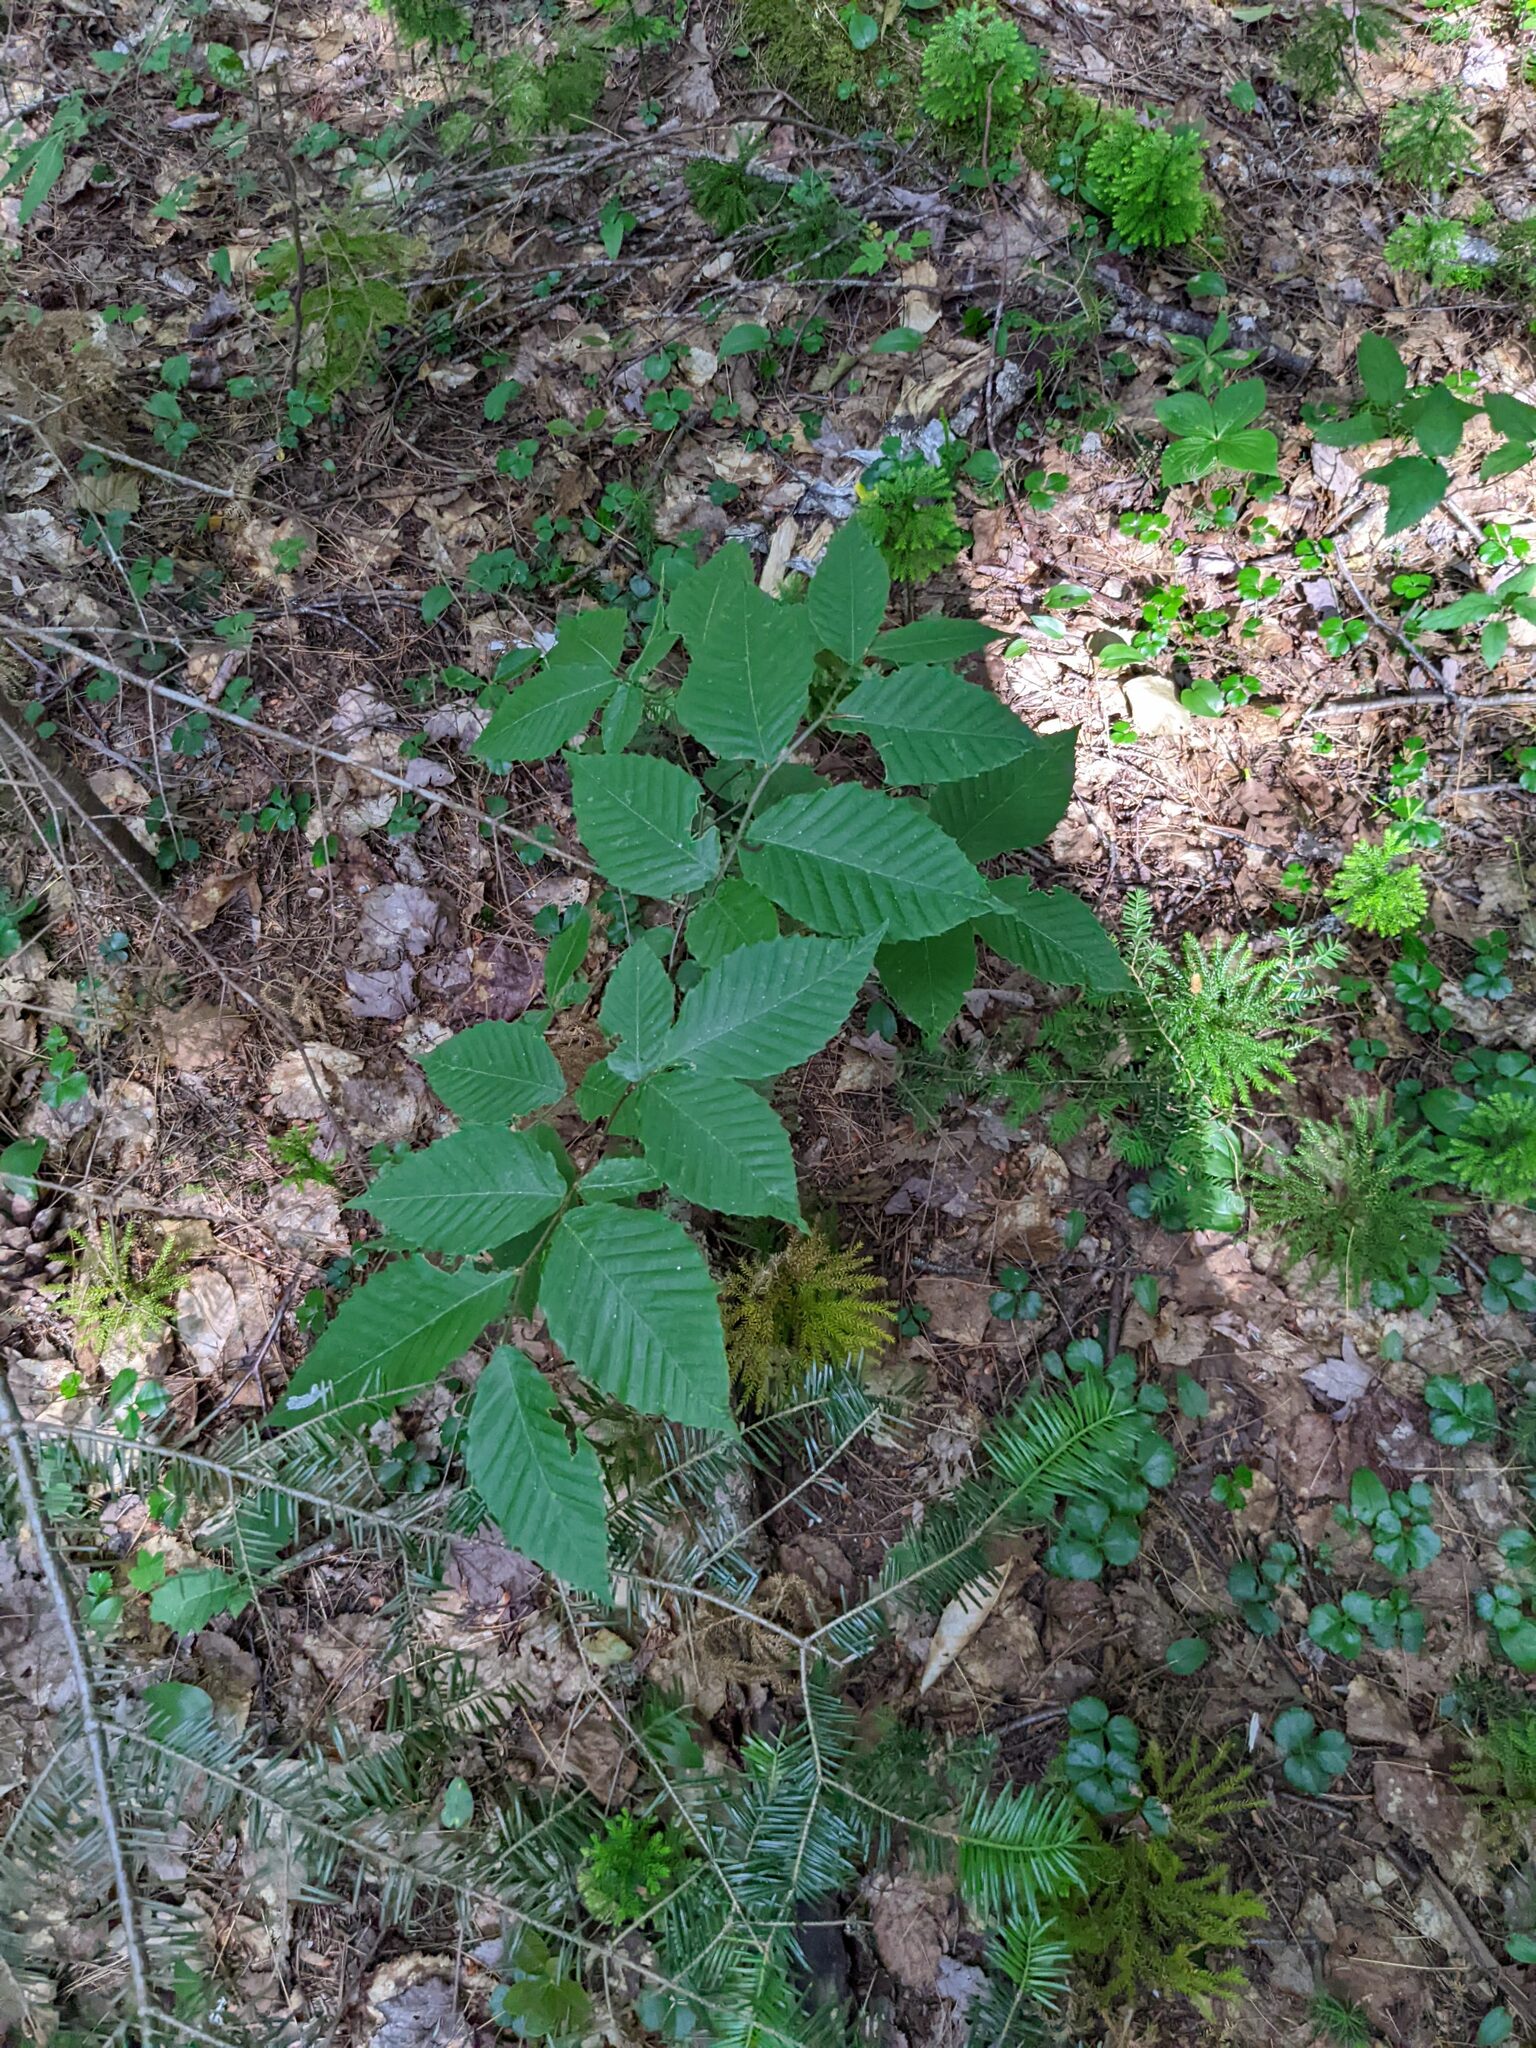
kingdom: Plantae
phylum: Tracheophyta
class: Magnoliopsida
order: Fagales
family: Fagaceae
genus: Fagus
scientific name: Fagus grandifolia
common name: American beech
